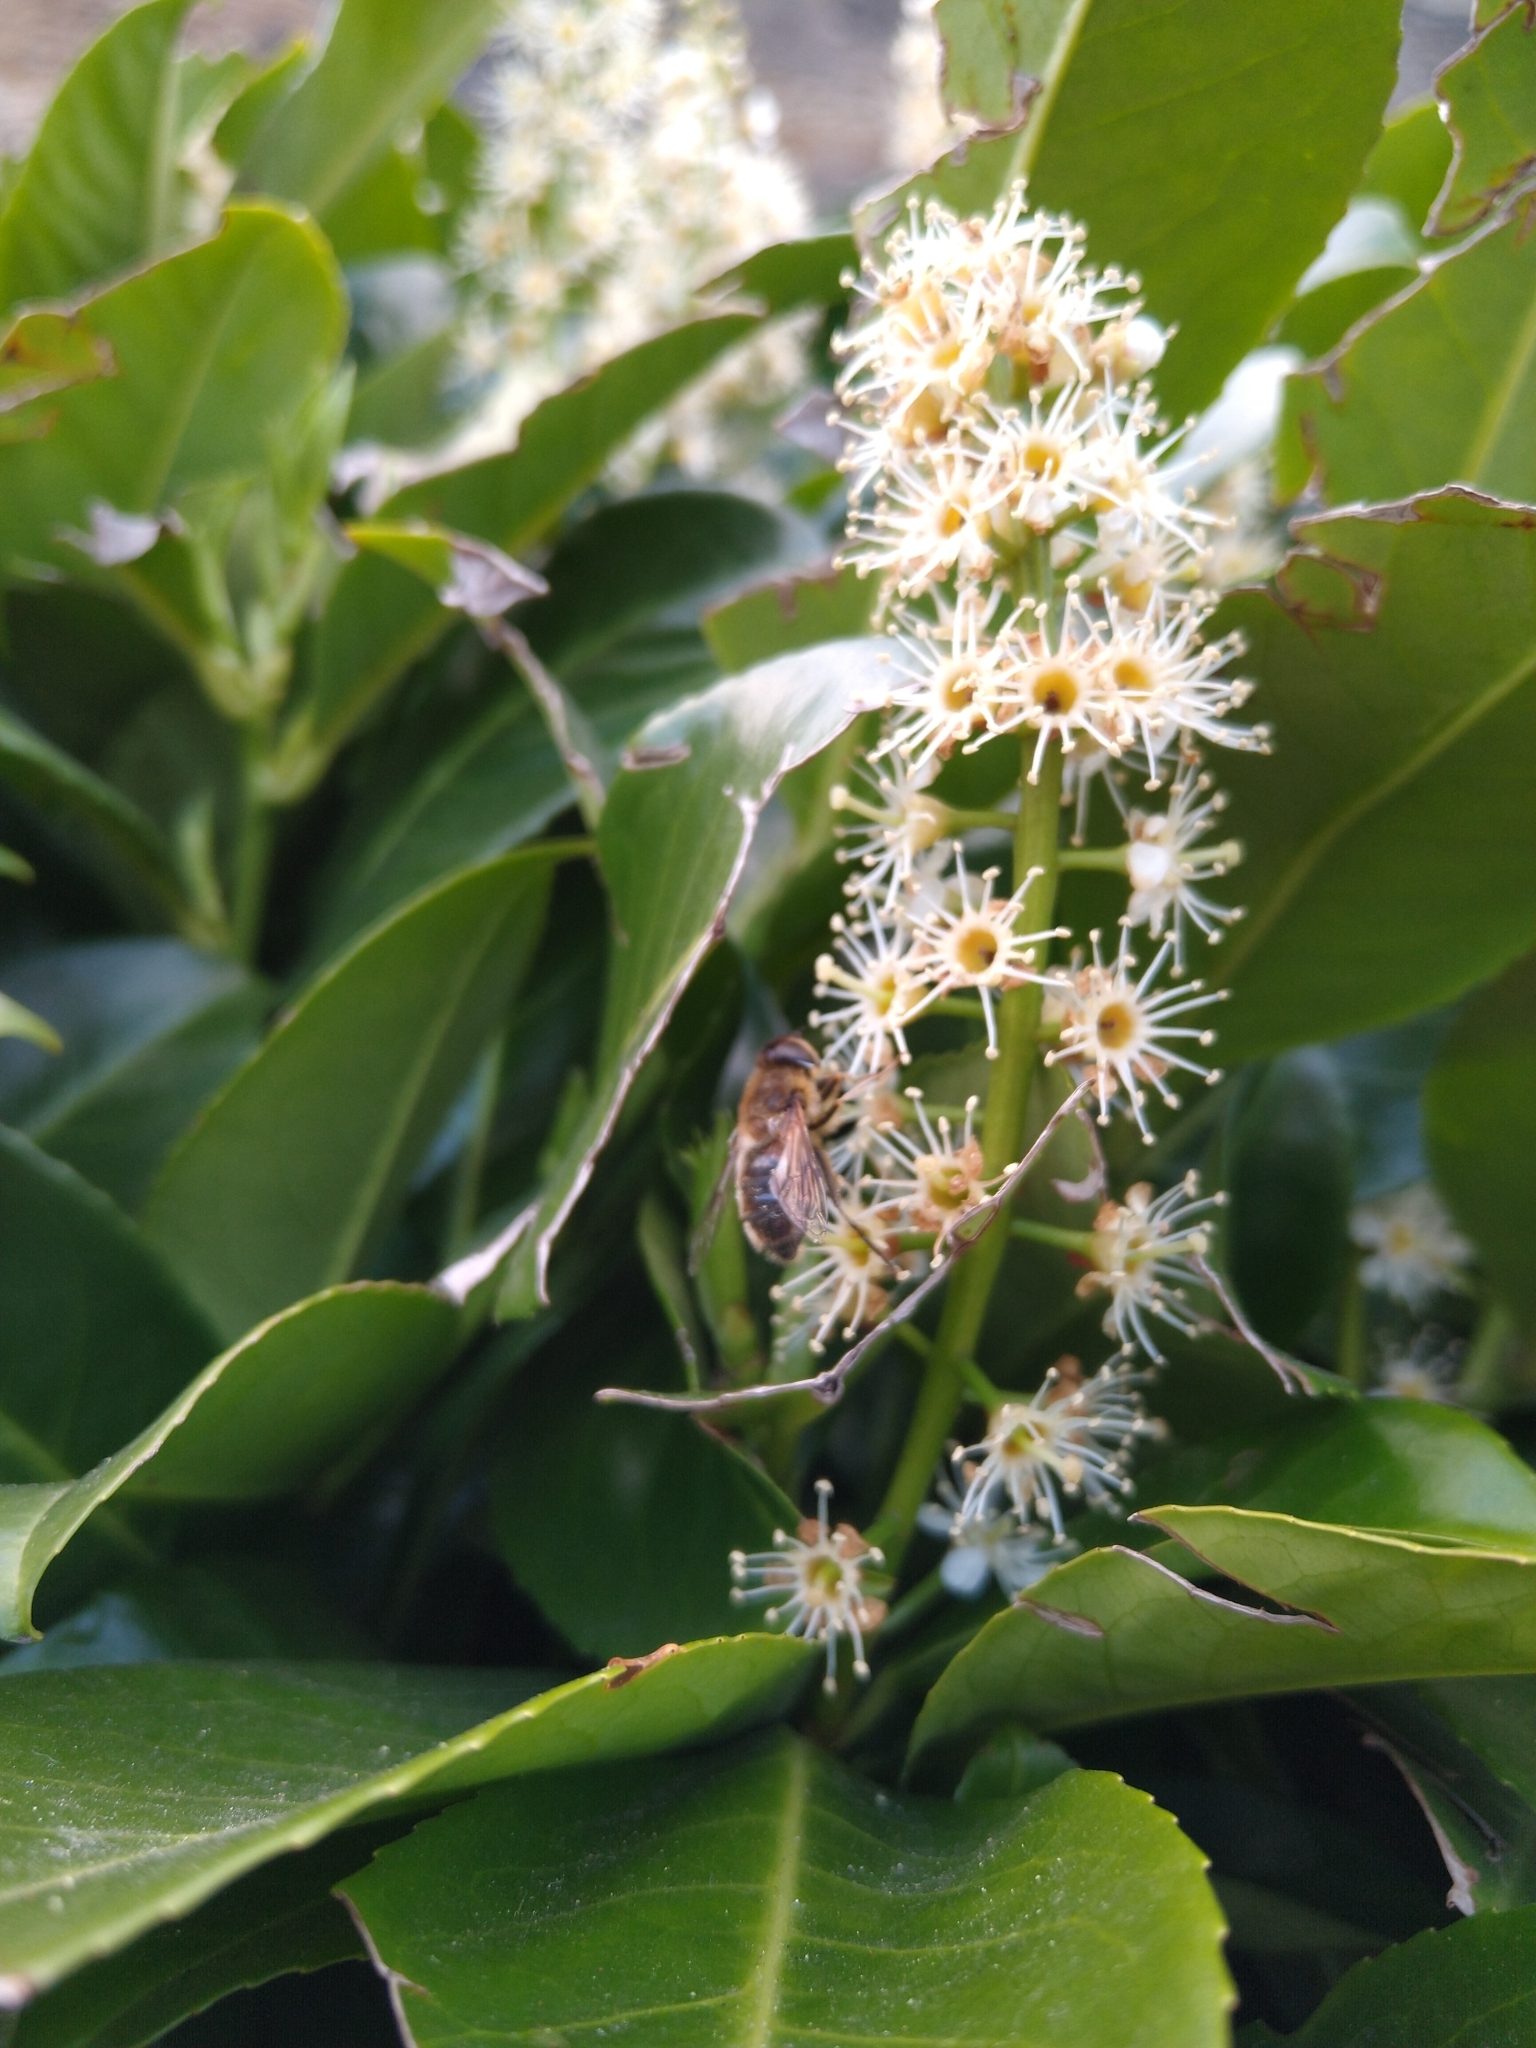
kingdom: Animalia
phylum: Arthropoda
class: Insecta
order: Diptera
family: Syrphidae
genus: Eristalis
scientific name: Eristalis pertinax
